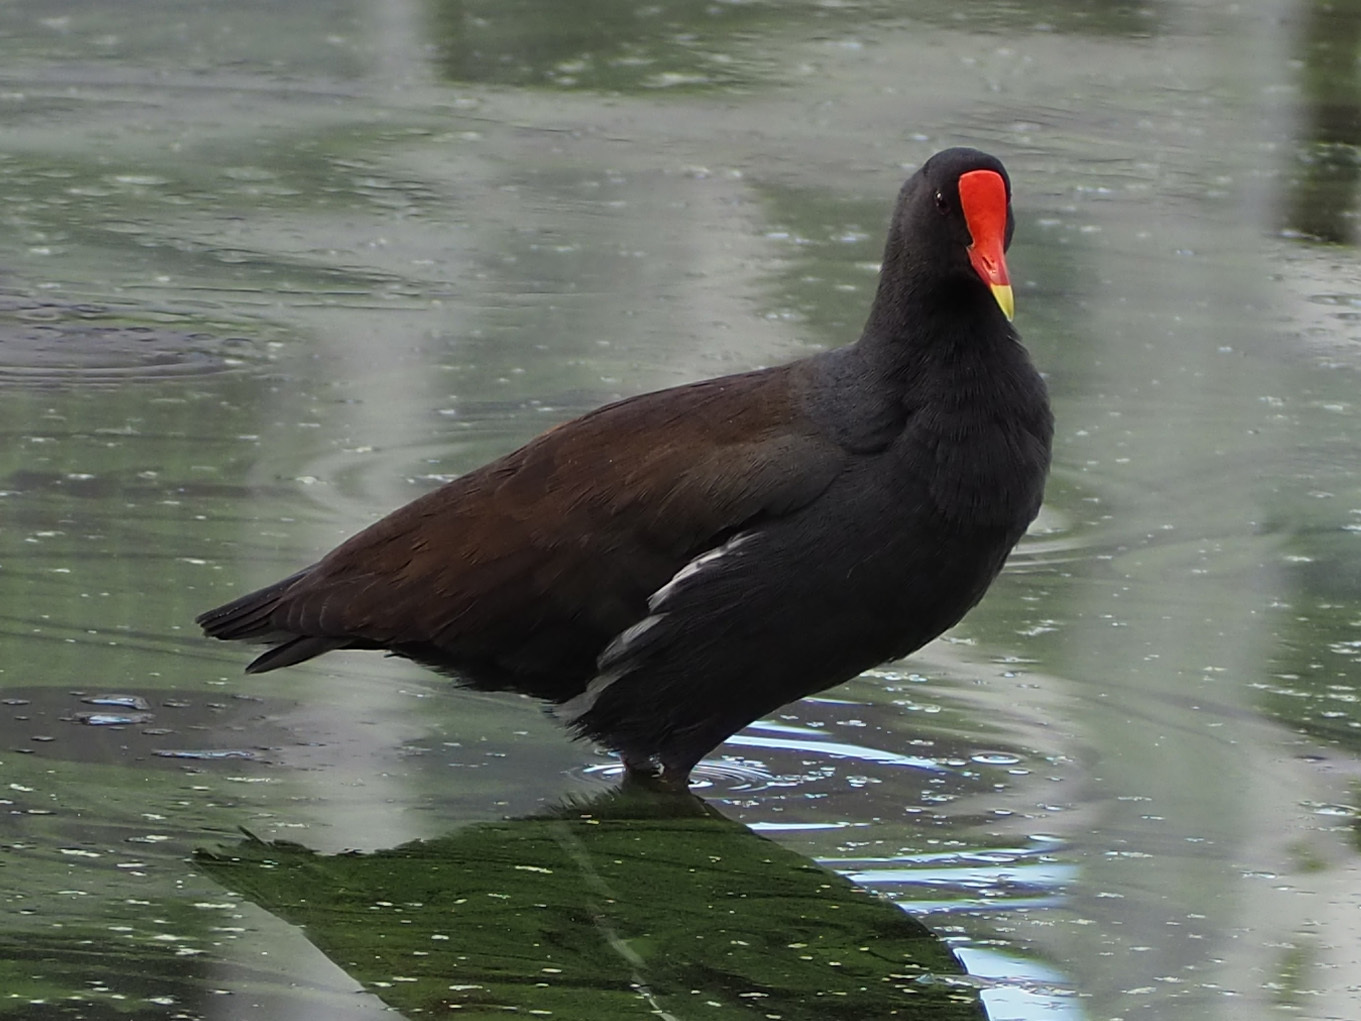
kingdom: Animalia
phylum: Chordata
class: Aves
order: Gruiformes
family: Rallidae
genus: Gallinula
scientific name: Gallinula chloropus
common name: Common moorhen
